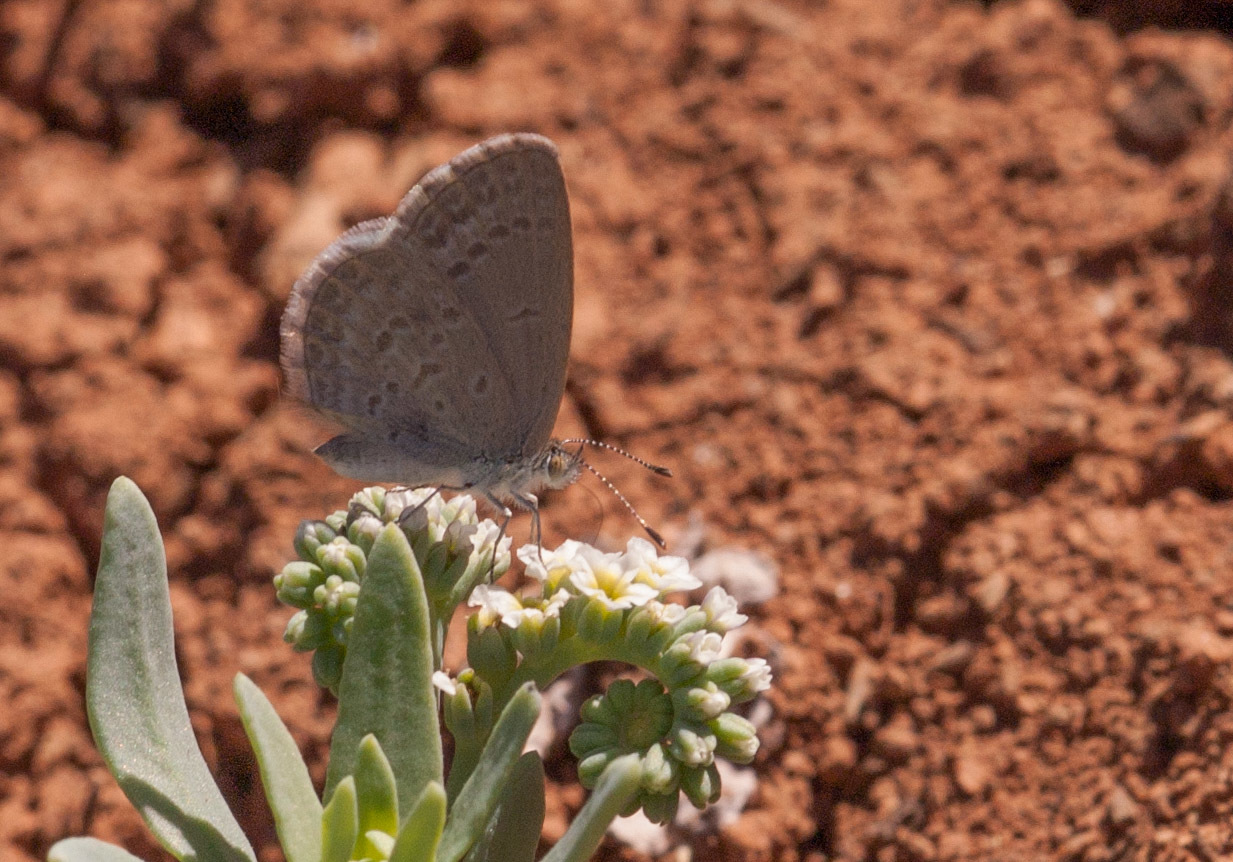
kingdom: Animalia
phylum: Arthropoda
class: Insecta
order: Lepidoptera
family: Lycaenidae
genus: Zizina
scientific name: Zizina labradus
